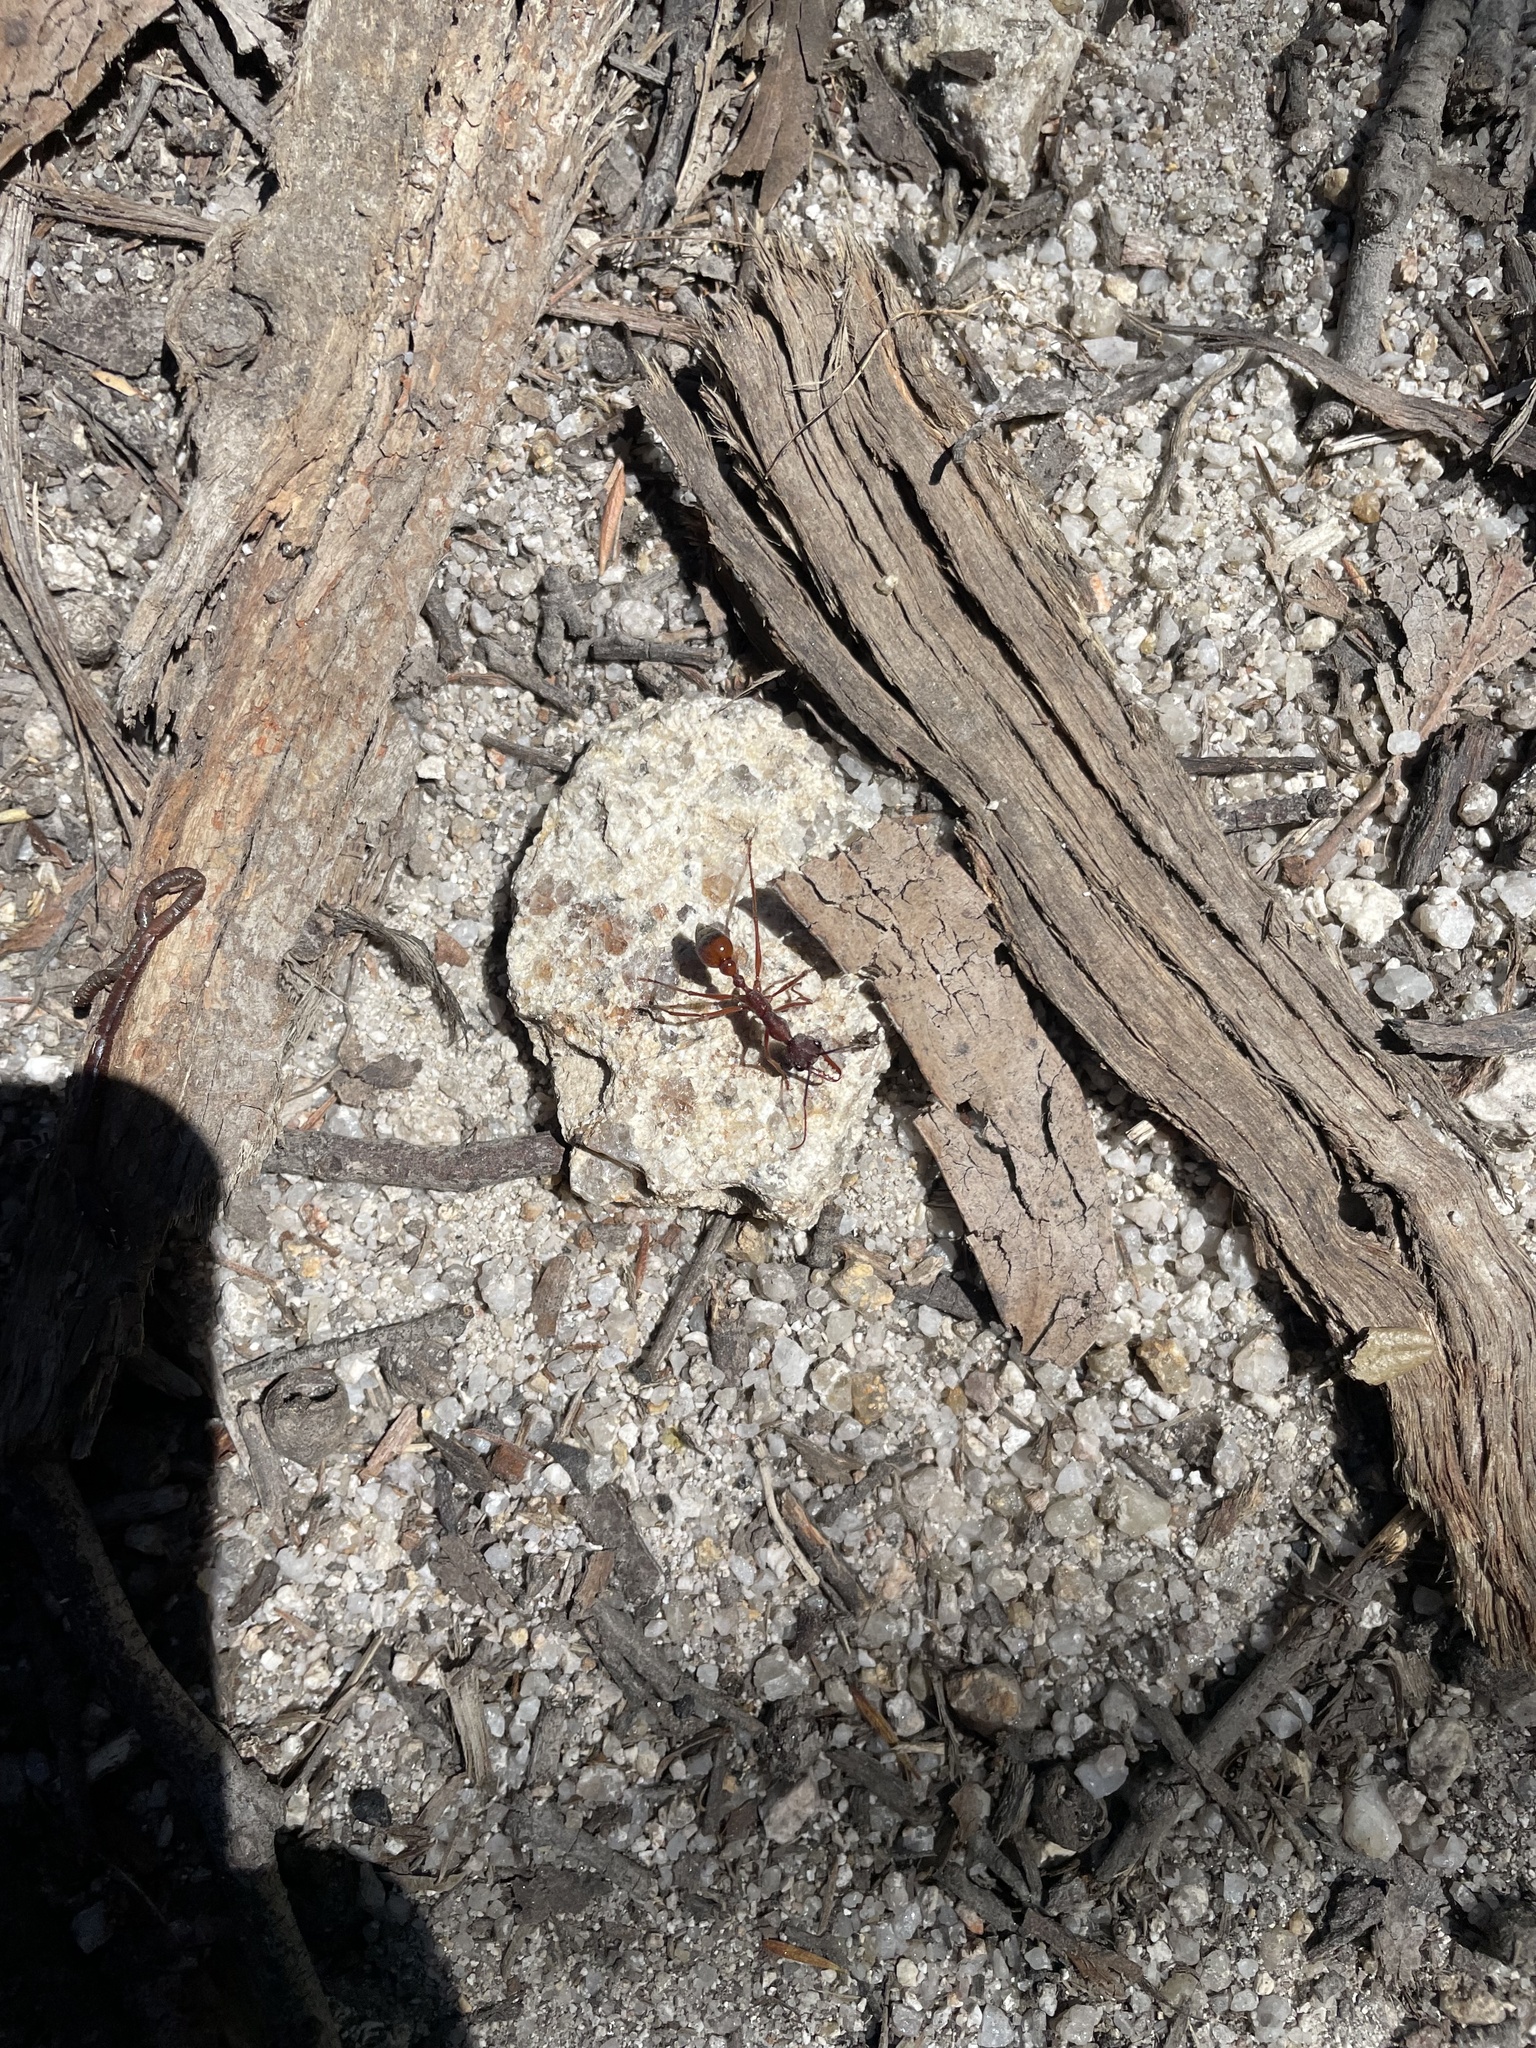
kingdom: Animalia
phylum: Arthropoda
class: Insecta
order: Hymenoptera
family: Formicidae
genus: Myrmecia
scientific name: Myrmecia nigriscapa
